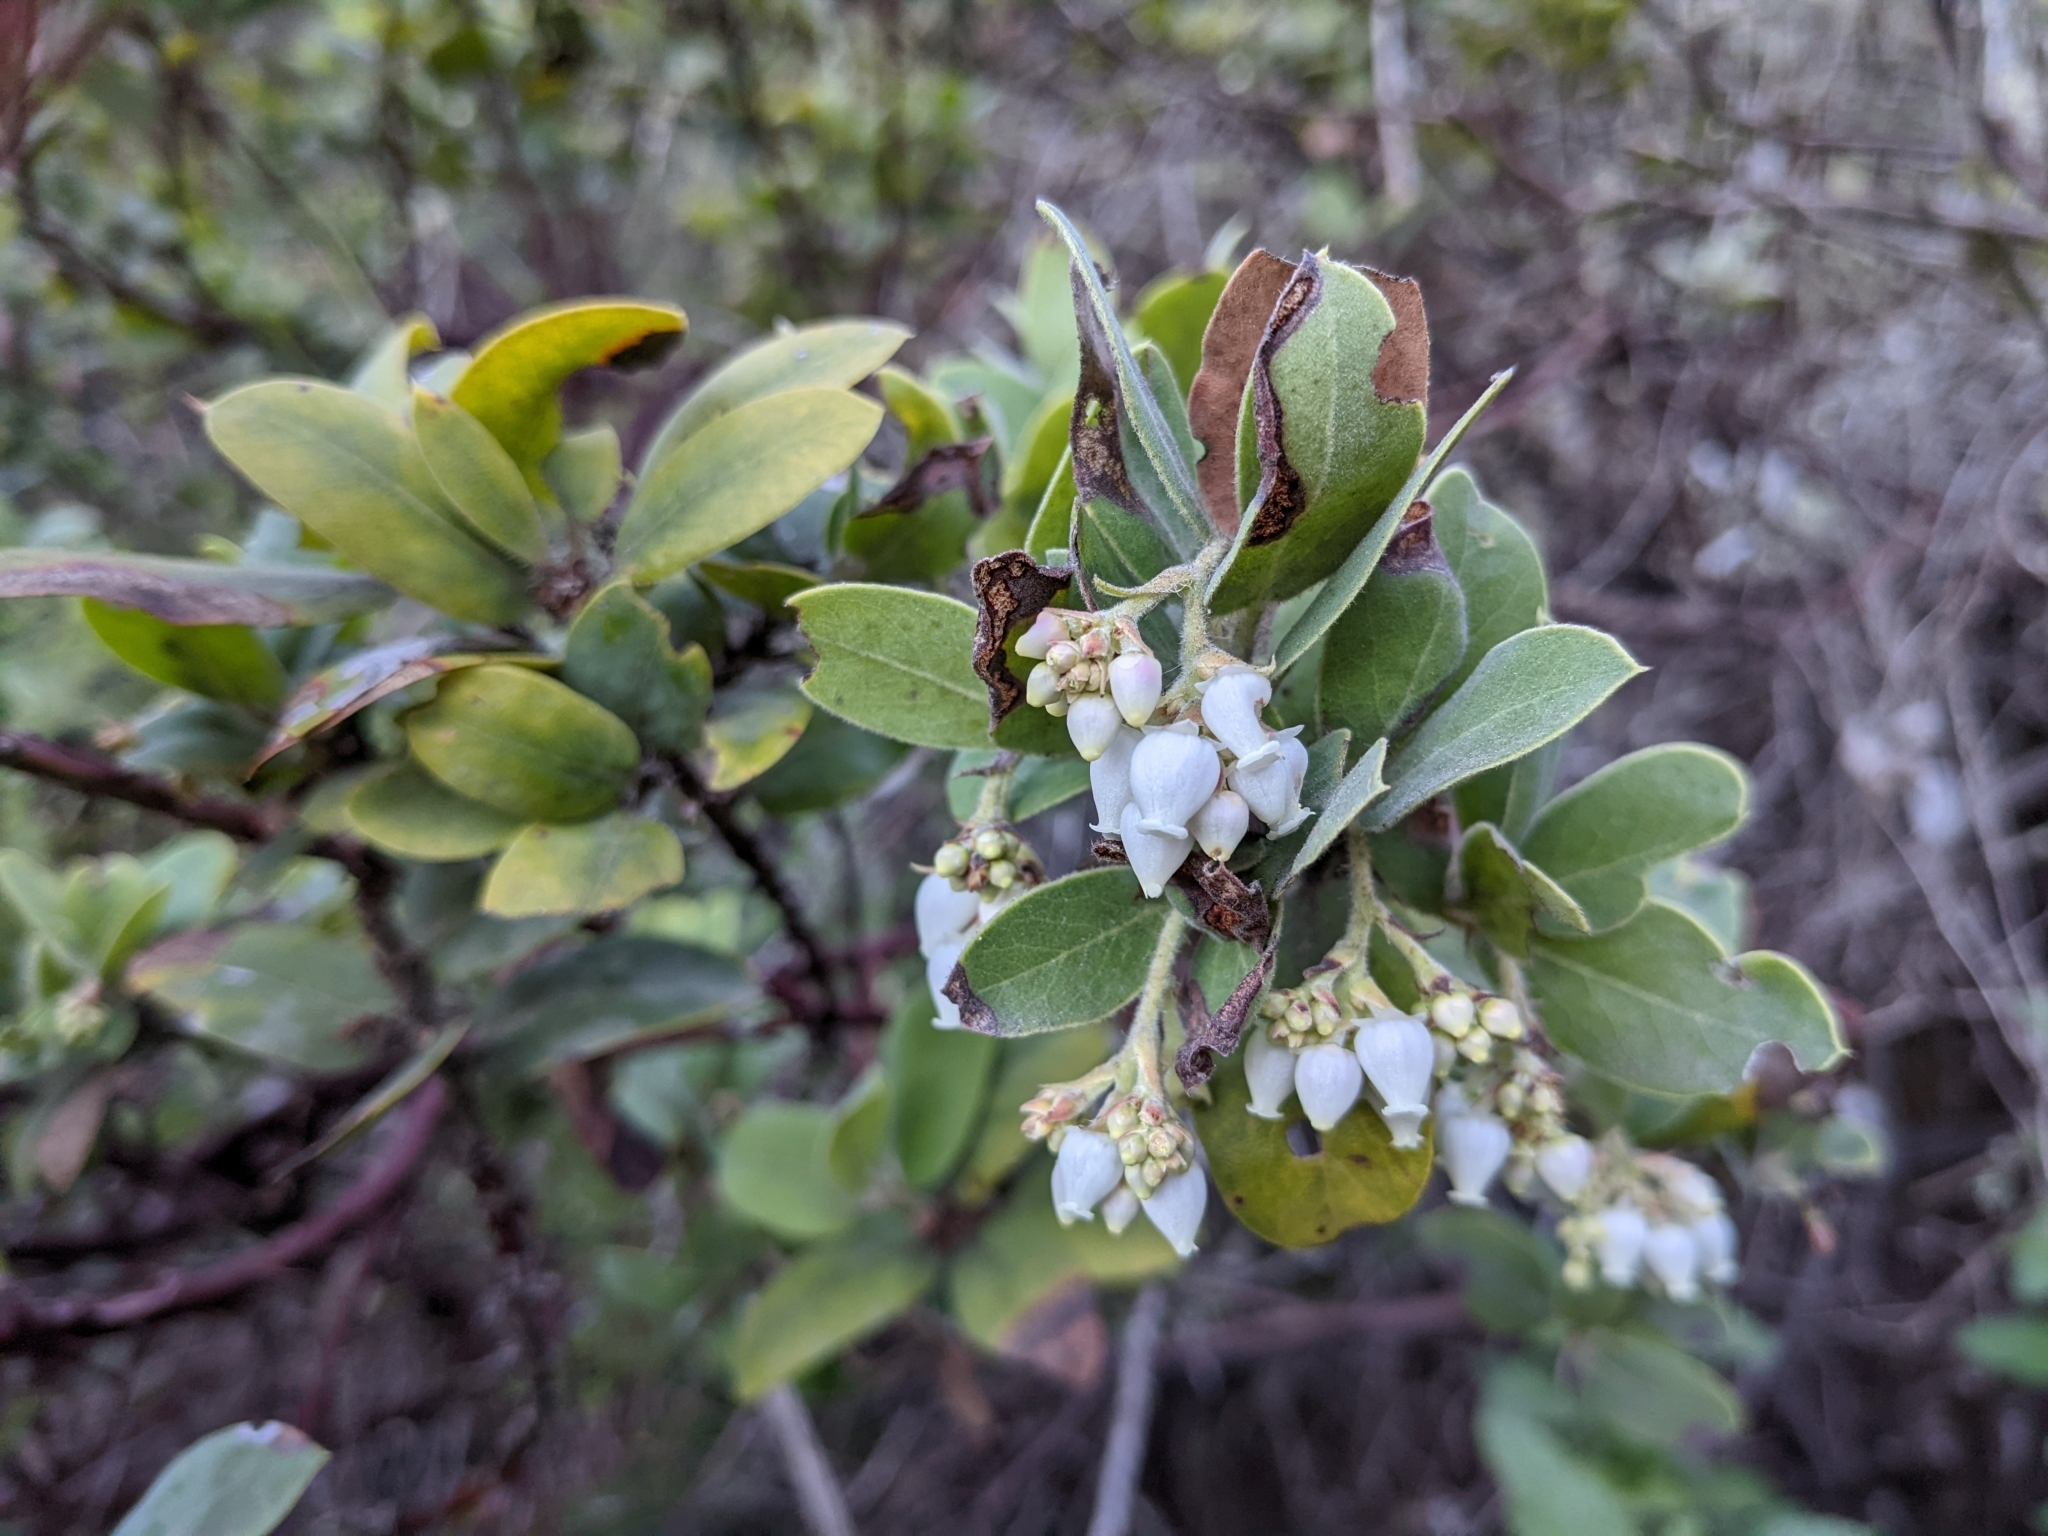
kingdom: Plantae
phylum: Tracheophyta
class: Magnoliopsida
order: Ericales
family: Ericaceae
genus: Arctostaphylos
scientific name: Arctostaphylos crustacea
